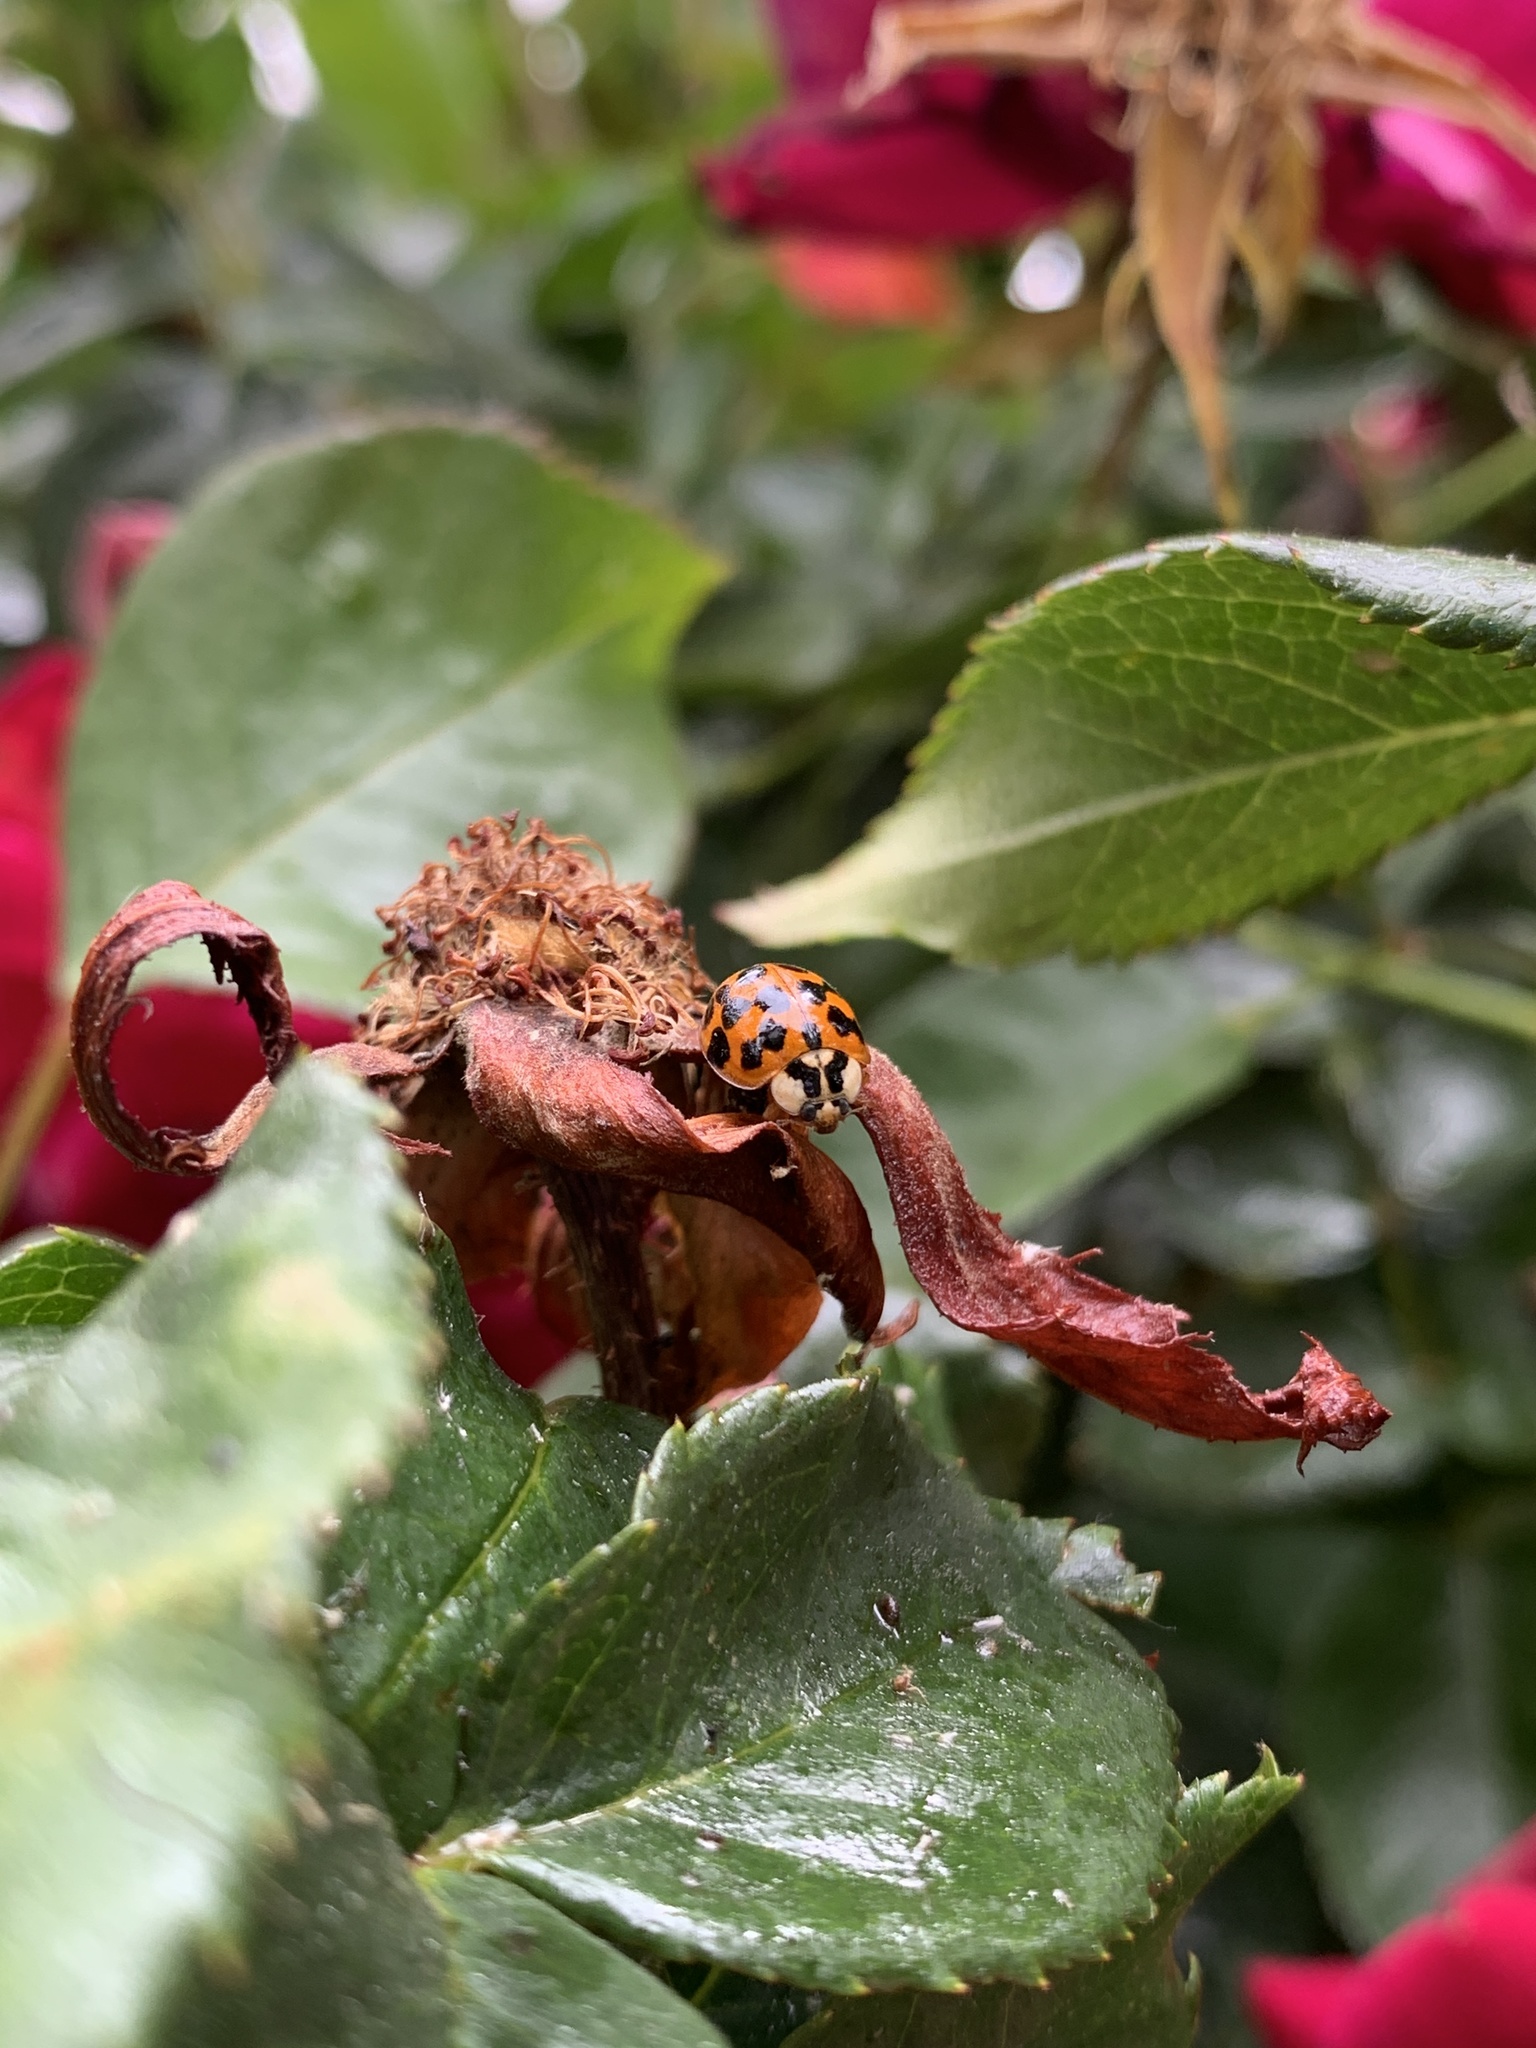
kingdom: Animalia
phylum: Arthropoda
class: Insecta
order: Coleoptera
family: Coccinellidae
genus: Harmonia
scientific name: Harmonia axyridis
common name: Harlequin ladybird
